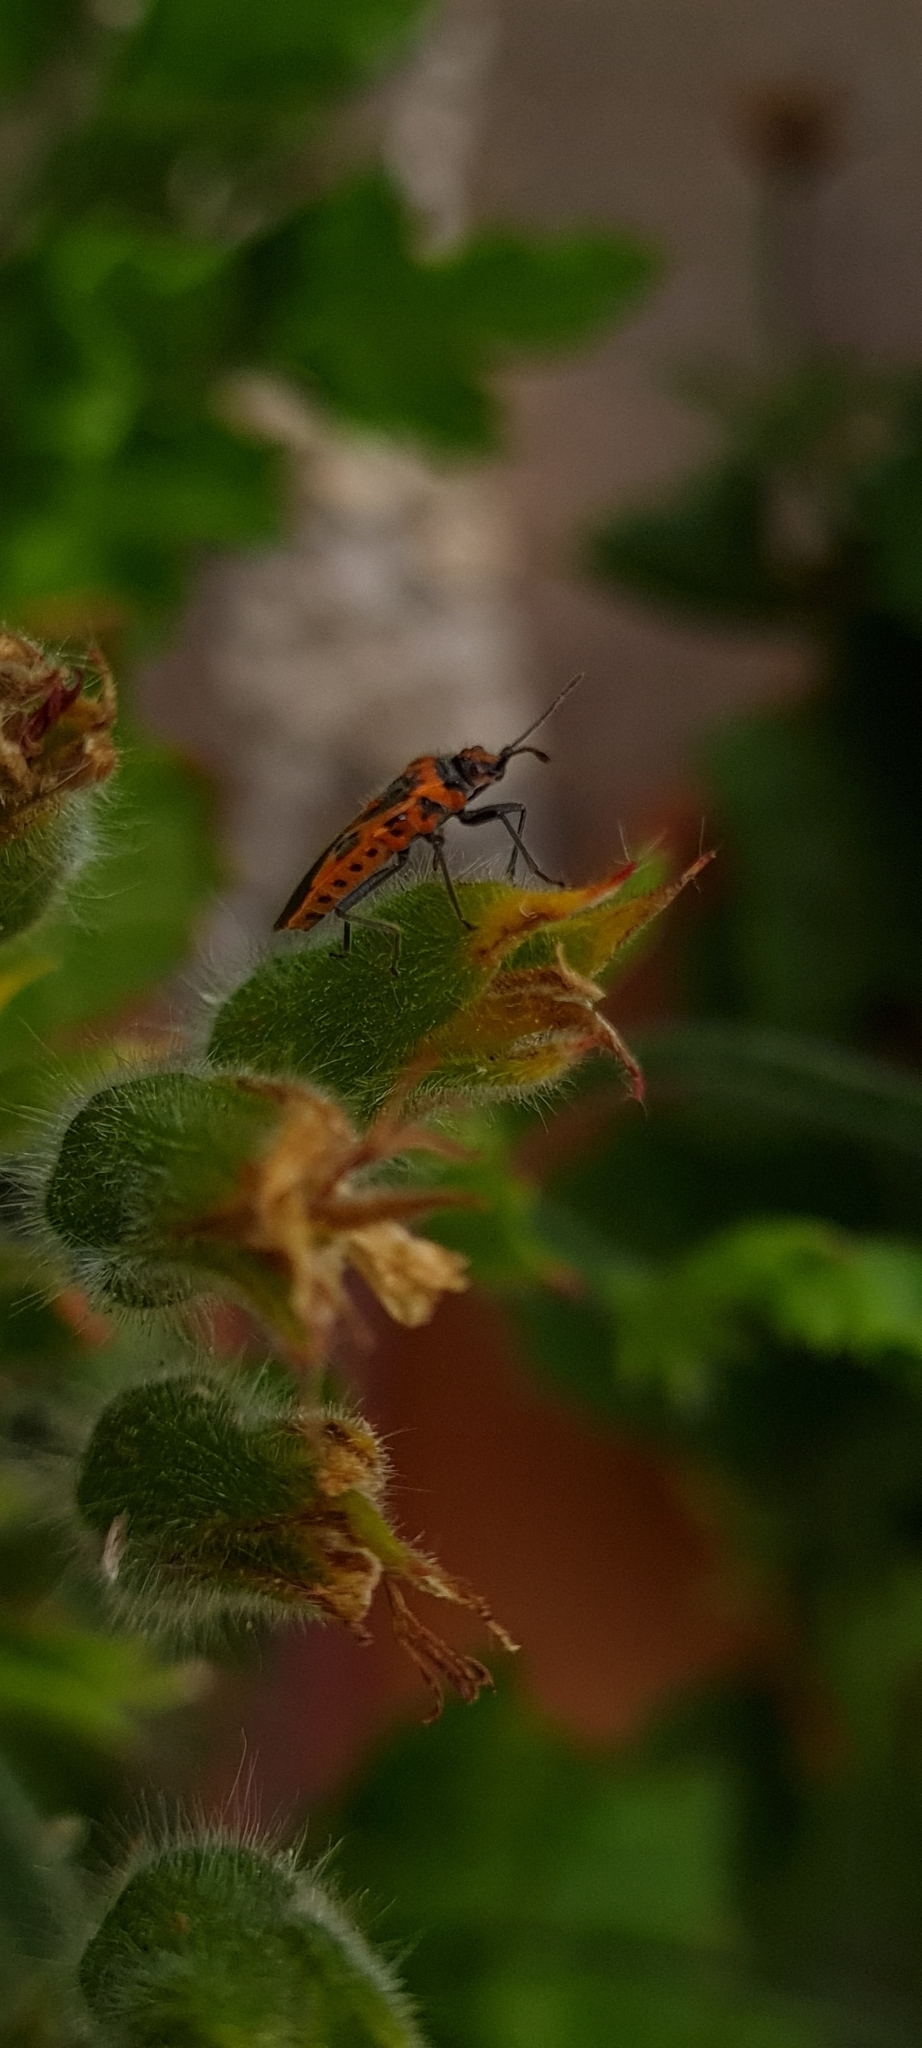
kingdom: Animalia
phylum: Arthropoda
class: Insecta
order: Hemiptera
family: Rhopalidae
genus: Corizus
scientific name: Corizus hyoscyami
